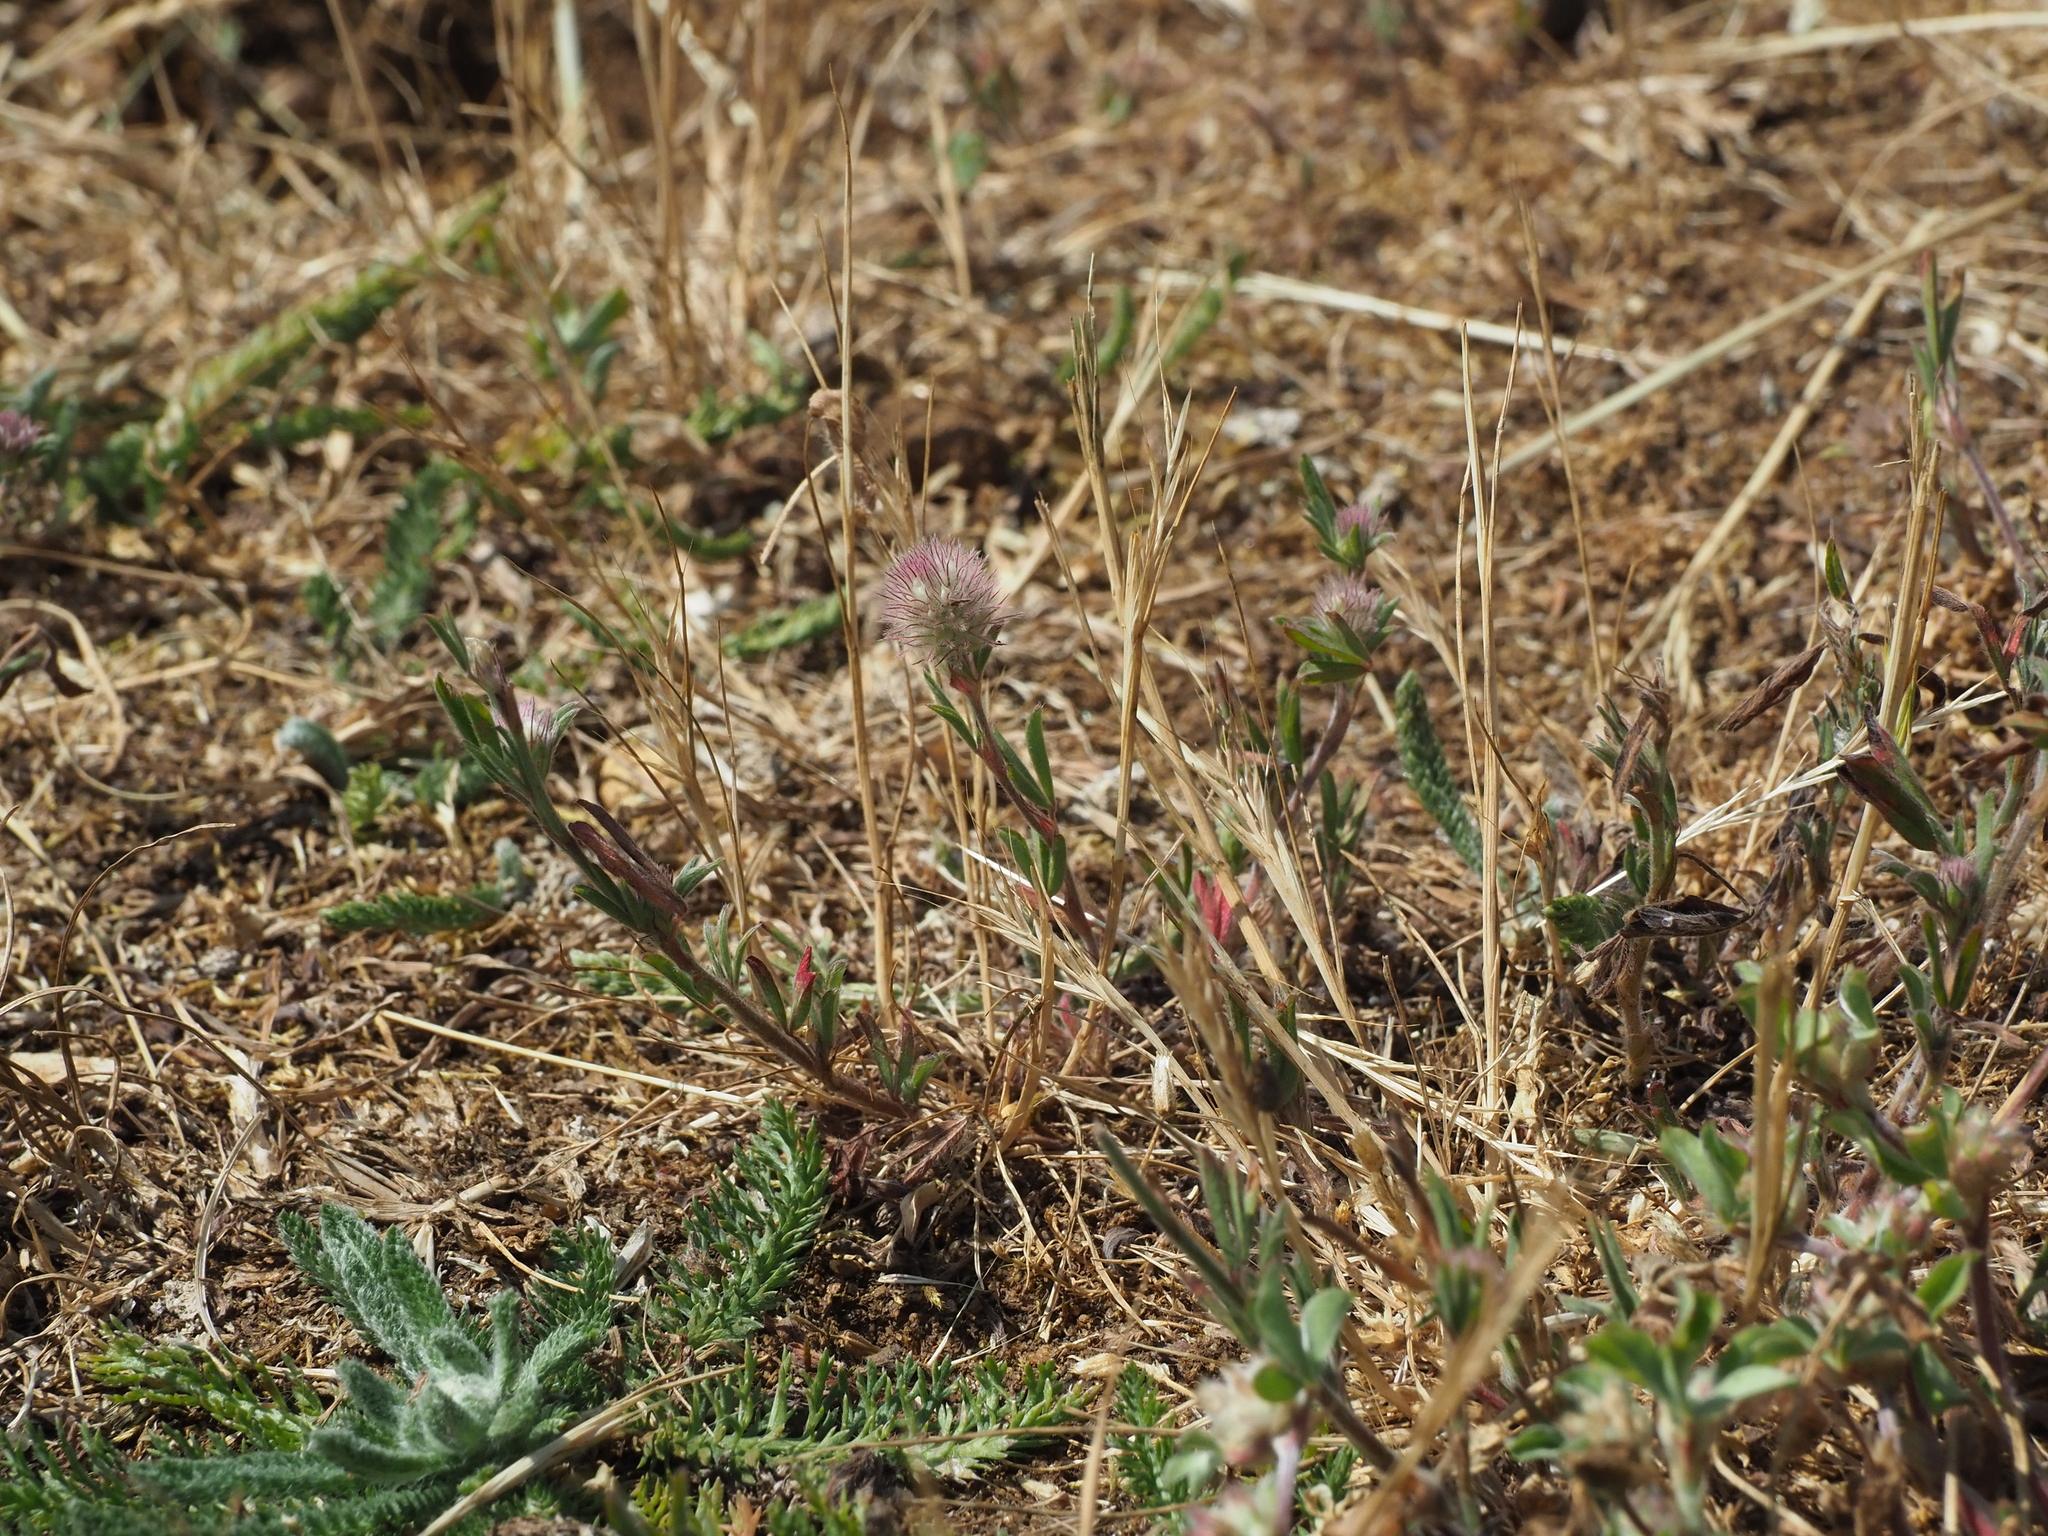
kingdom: Plantae
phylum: Tracheophyta
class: Magnoliopsida
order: Fabales
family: Fabaceae
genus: Trifolium
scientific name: Trifolium arvense
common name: Hare's-foot clover
